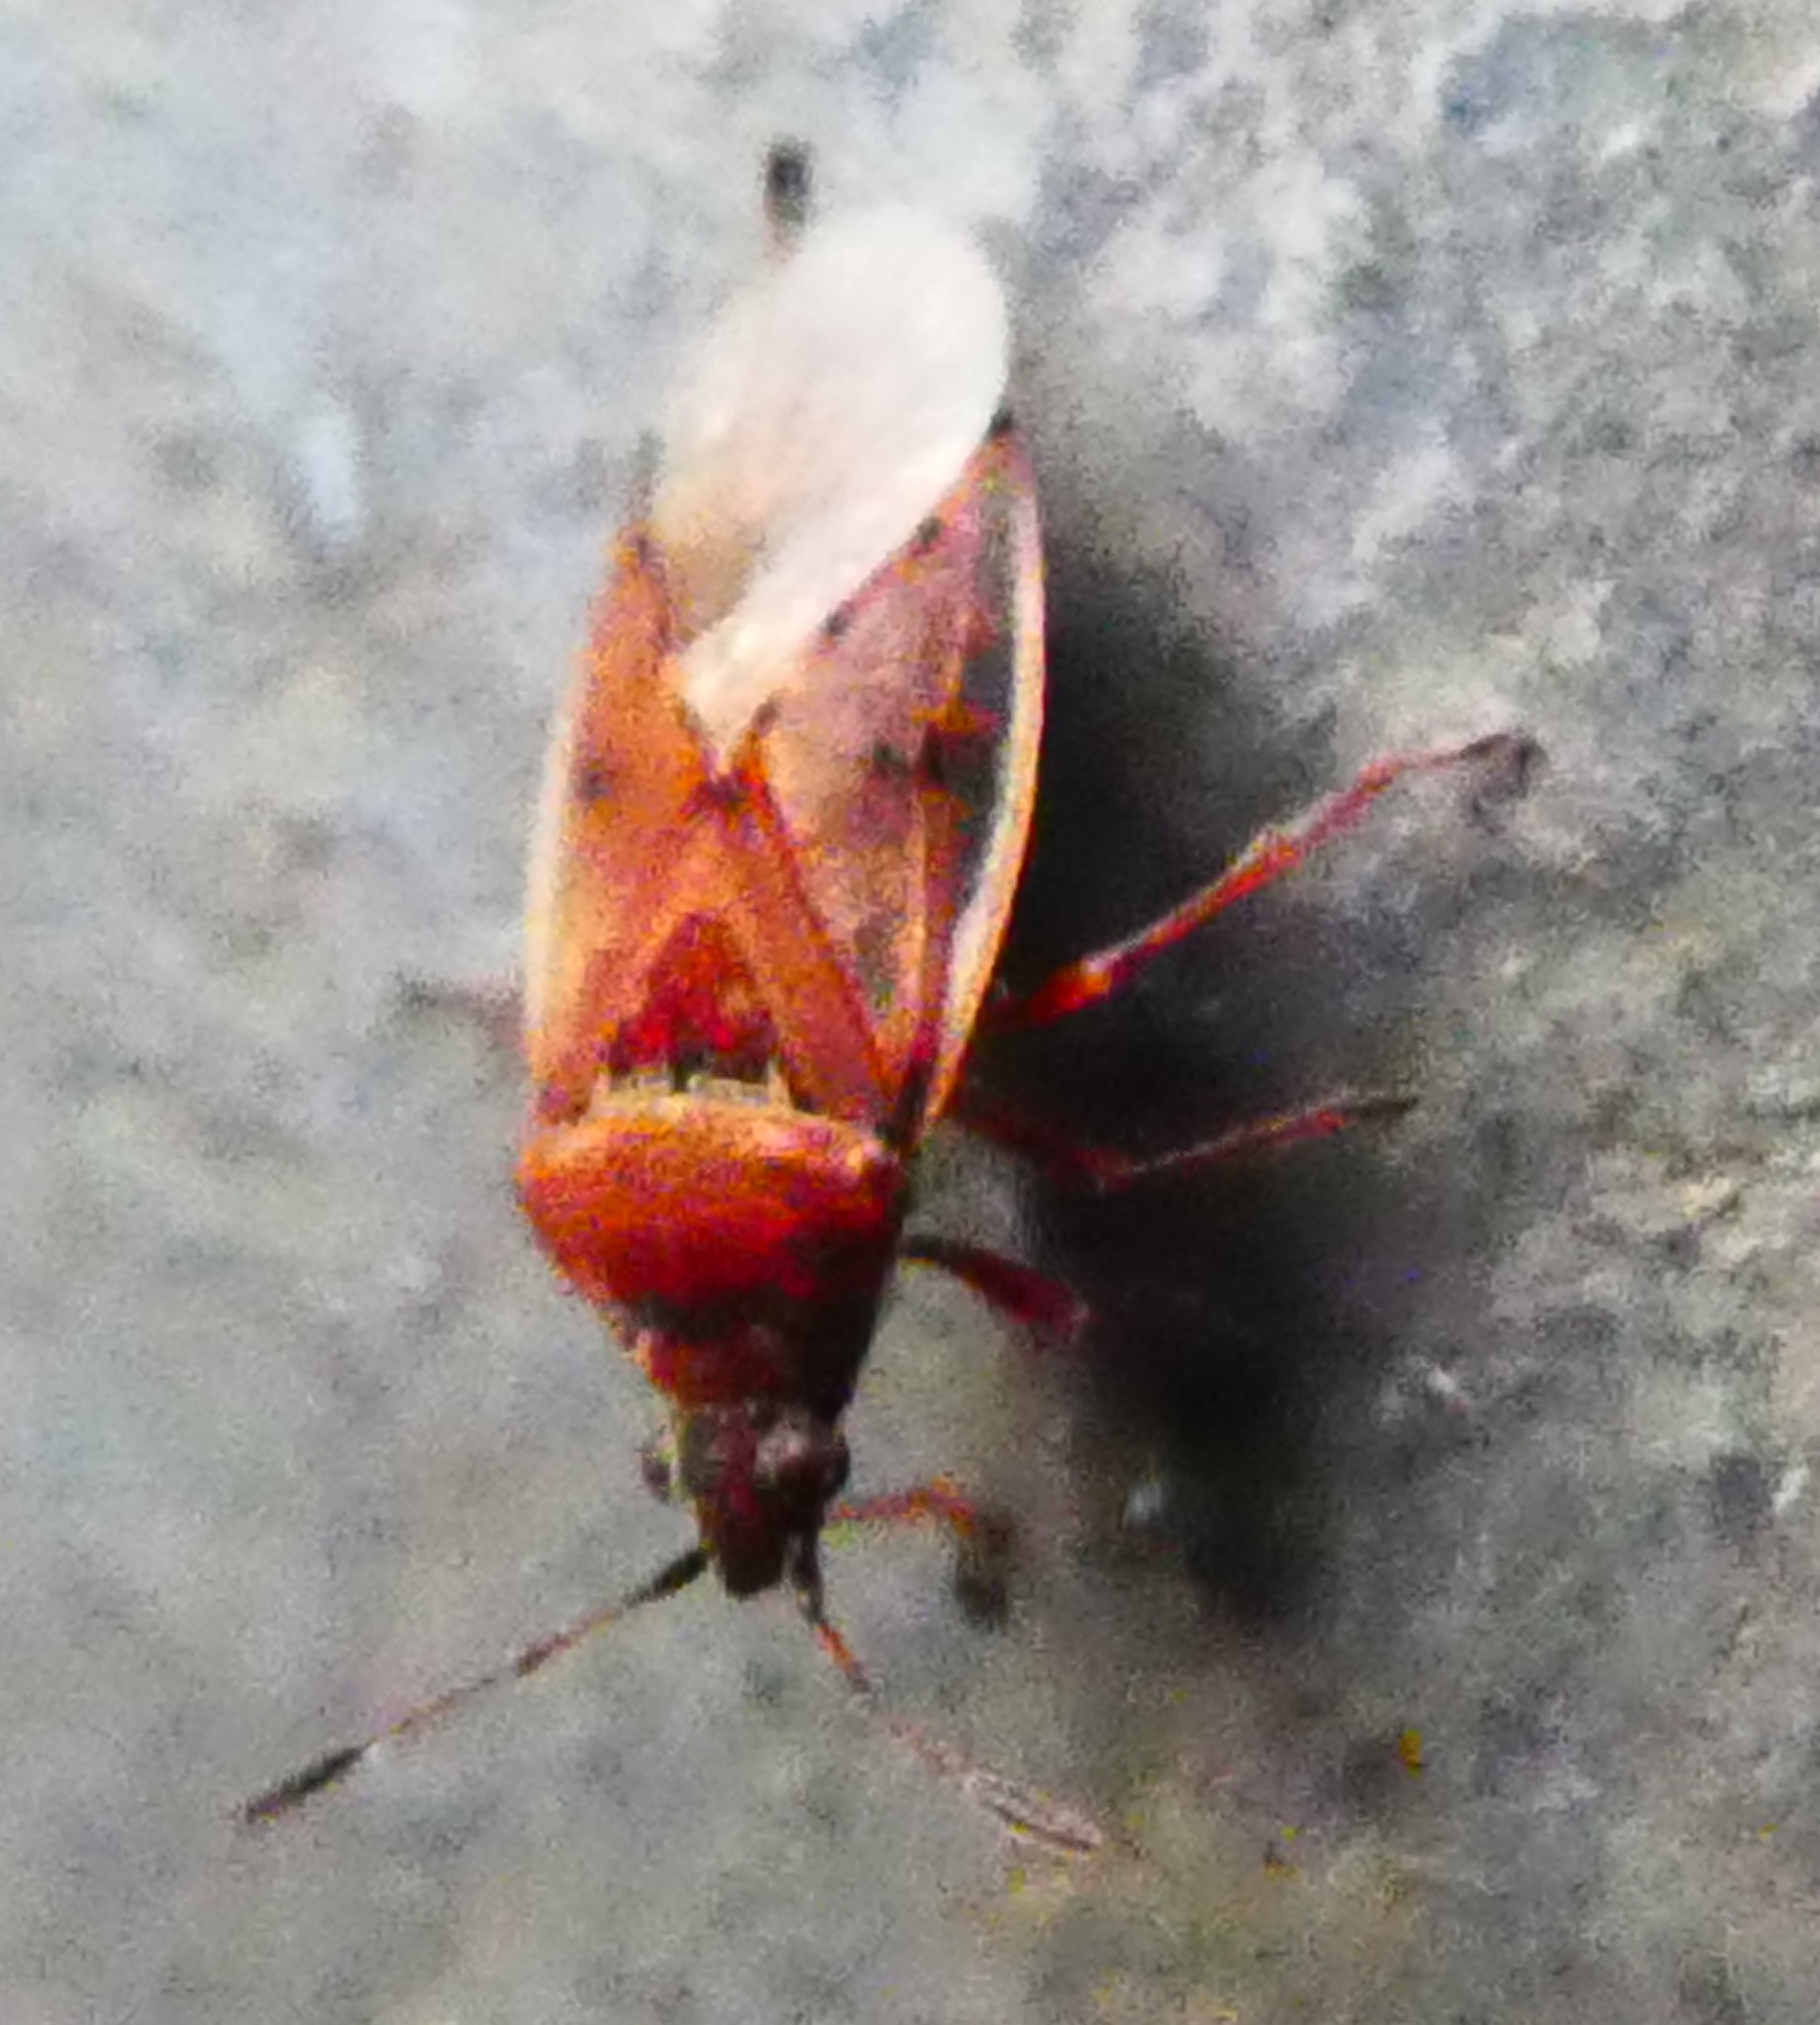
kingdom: Animalia
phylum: Arthropoda
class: Insecta
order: Hemiptera
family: Lygaeidae
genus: Kleidocerys
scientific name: Kleidocerys resedae
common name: Birch catkin bug
